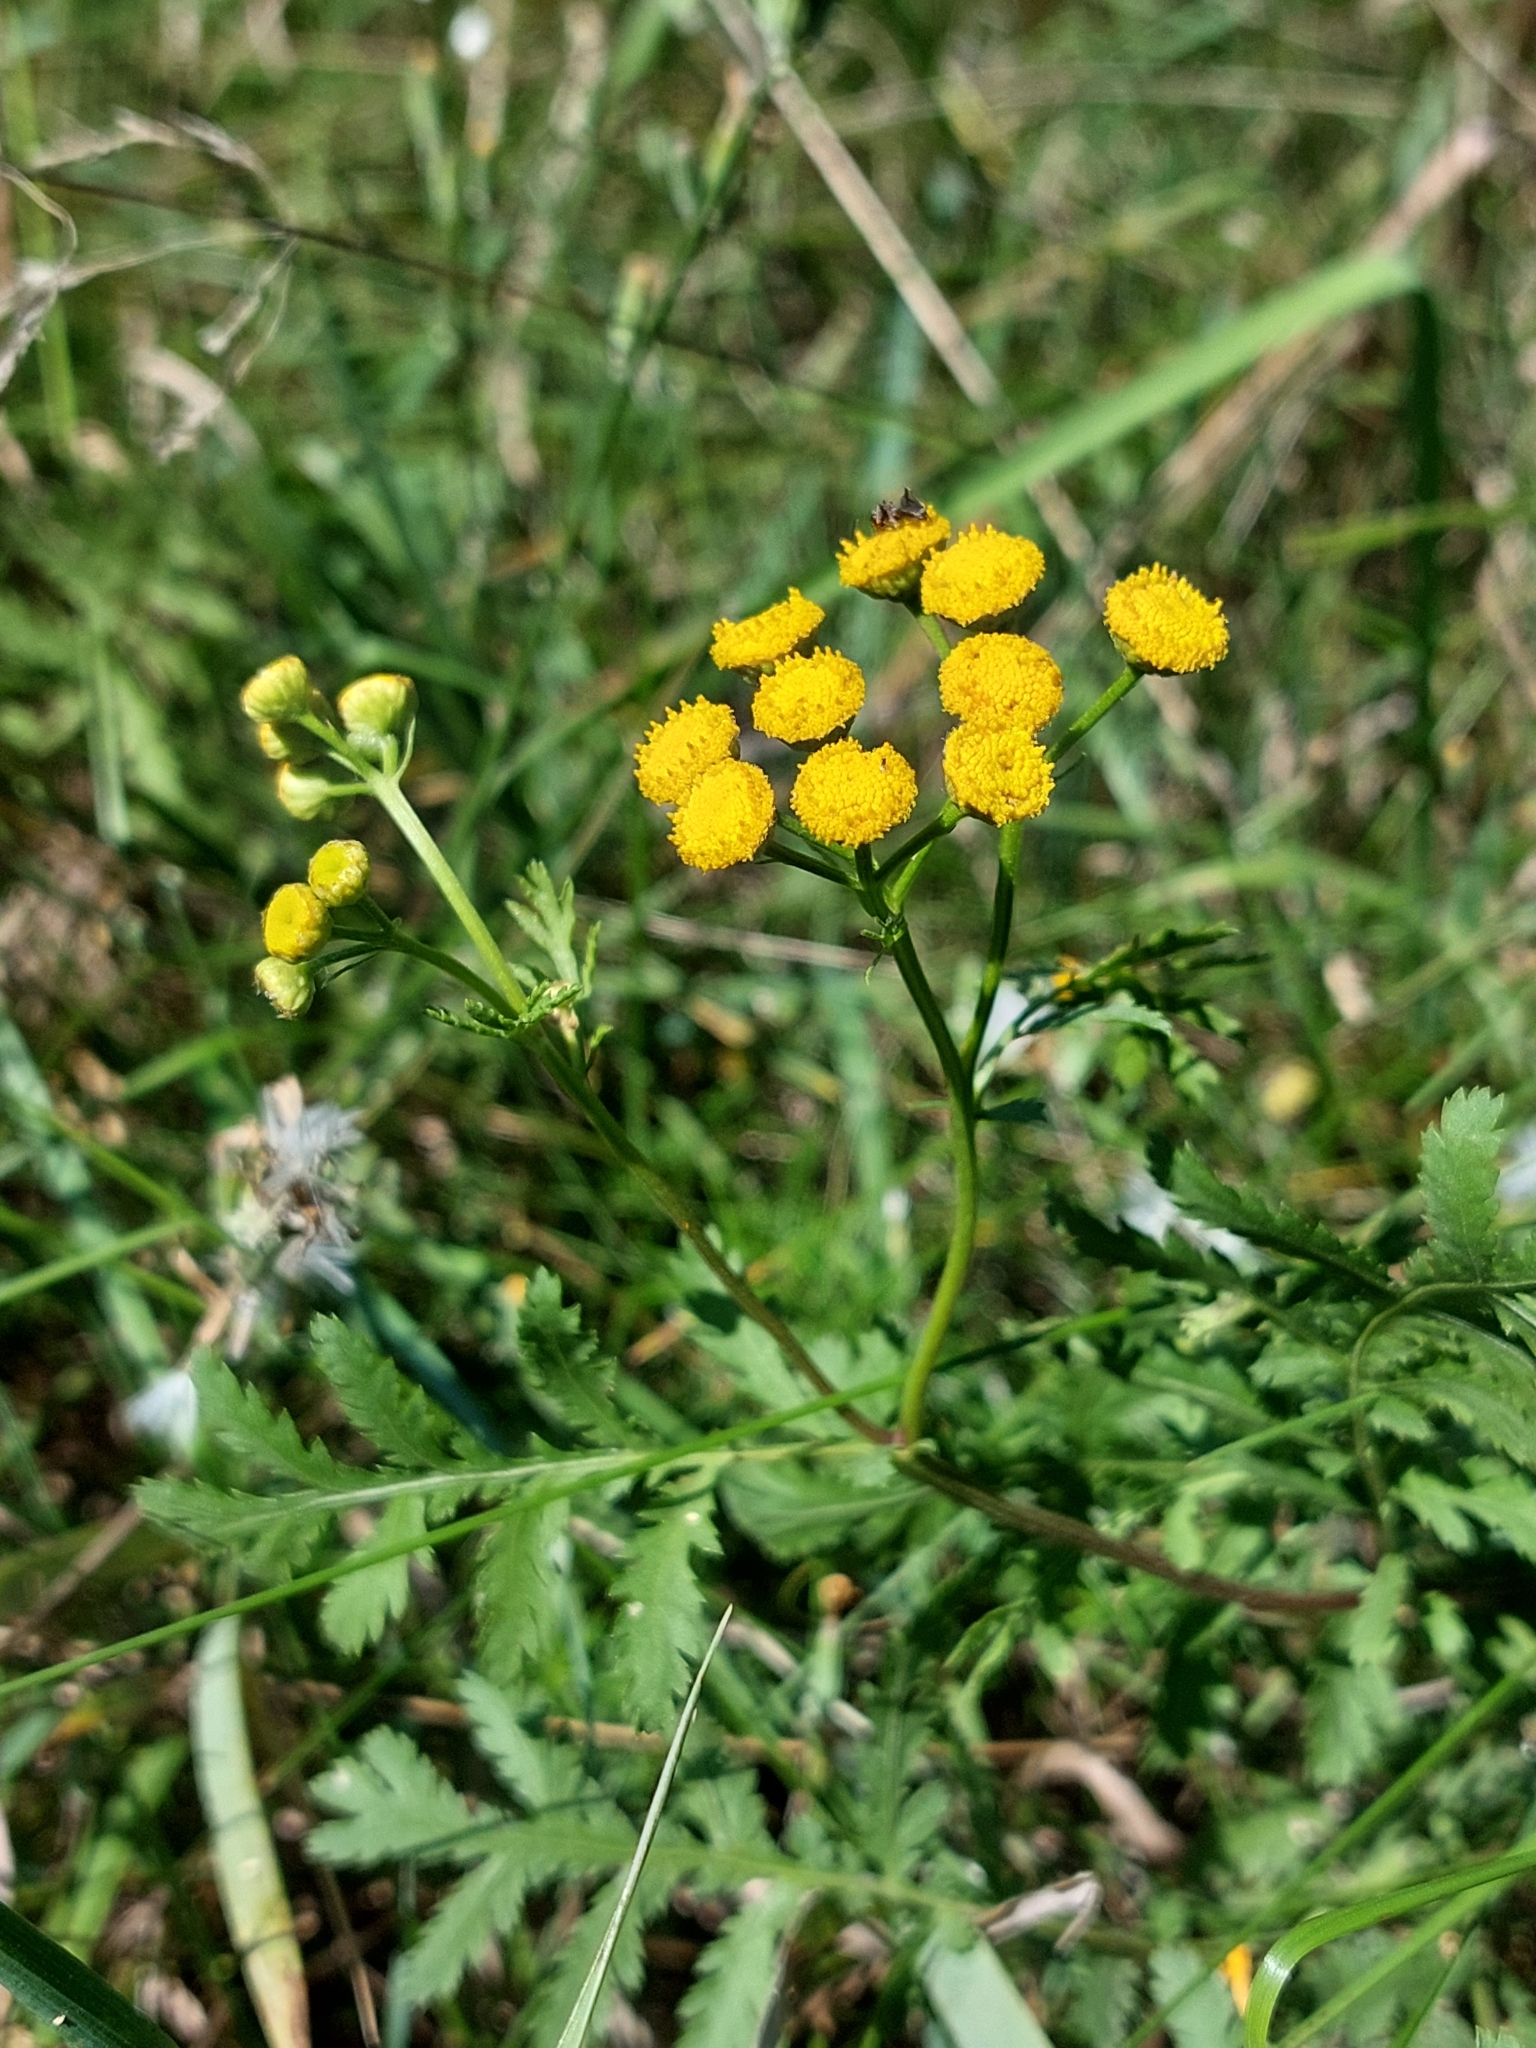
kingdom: Plantae
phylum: Tracheophyta
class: Magnoliopsida
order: Asterales
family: Asteraceae
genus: Tanacetum
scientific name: Tanacetum vulgare
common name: Common tansy
